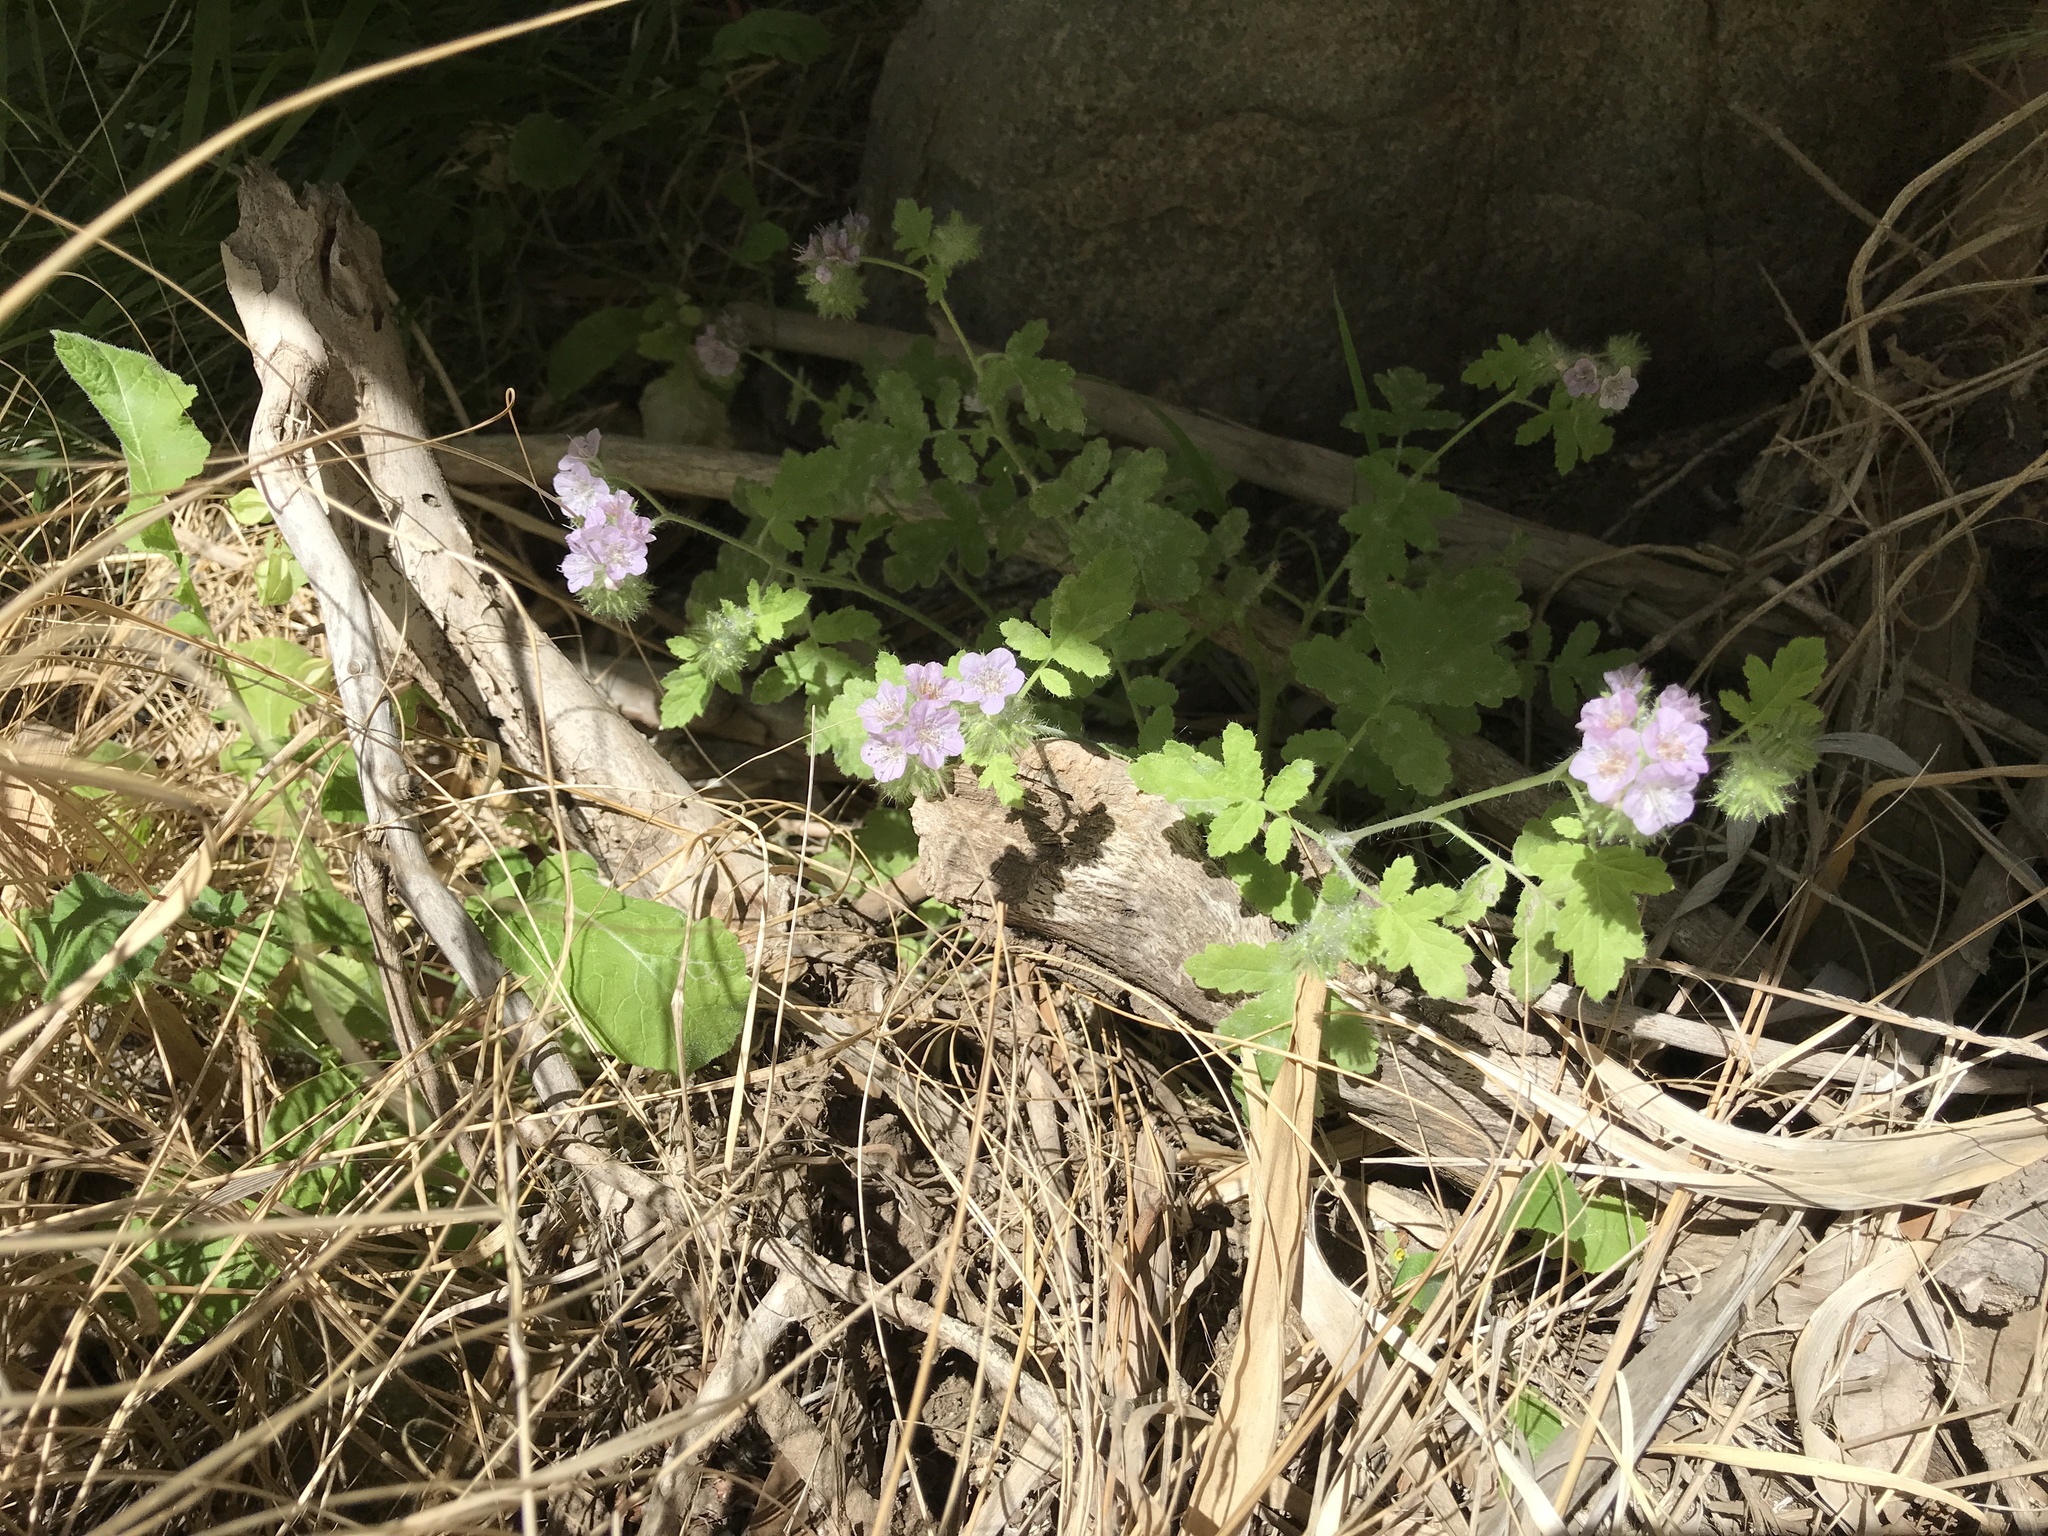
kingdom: Plantae
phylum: Tracheophyta
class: Magnoliopsida
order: Boraginales
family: Hydrophyllaceae
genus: Phacelia
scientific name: Phacelia cicutaria
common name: Caterpillar phacelia
